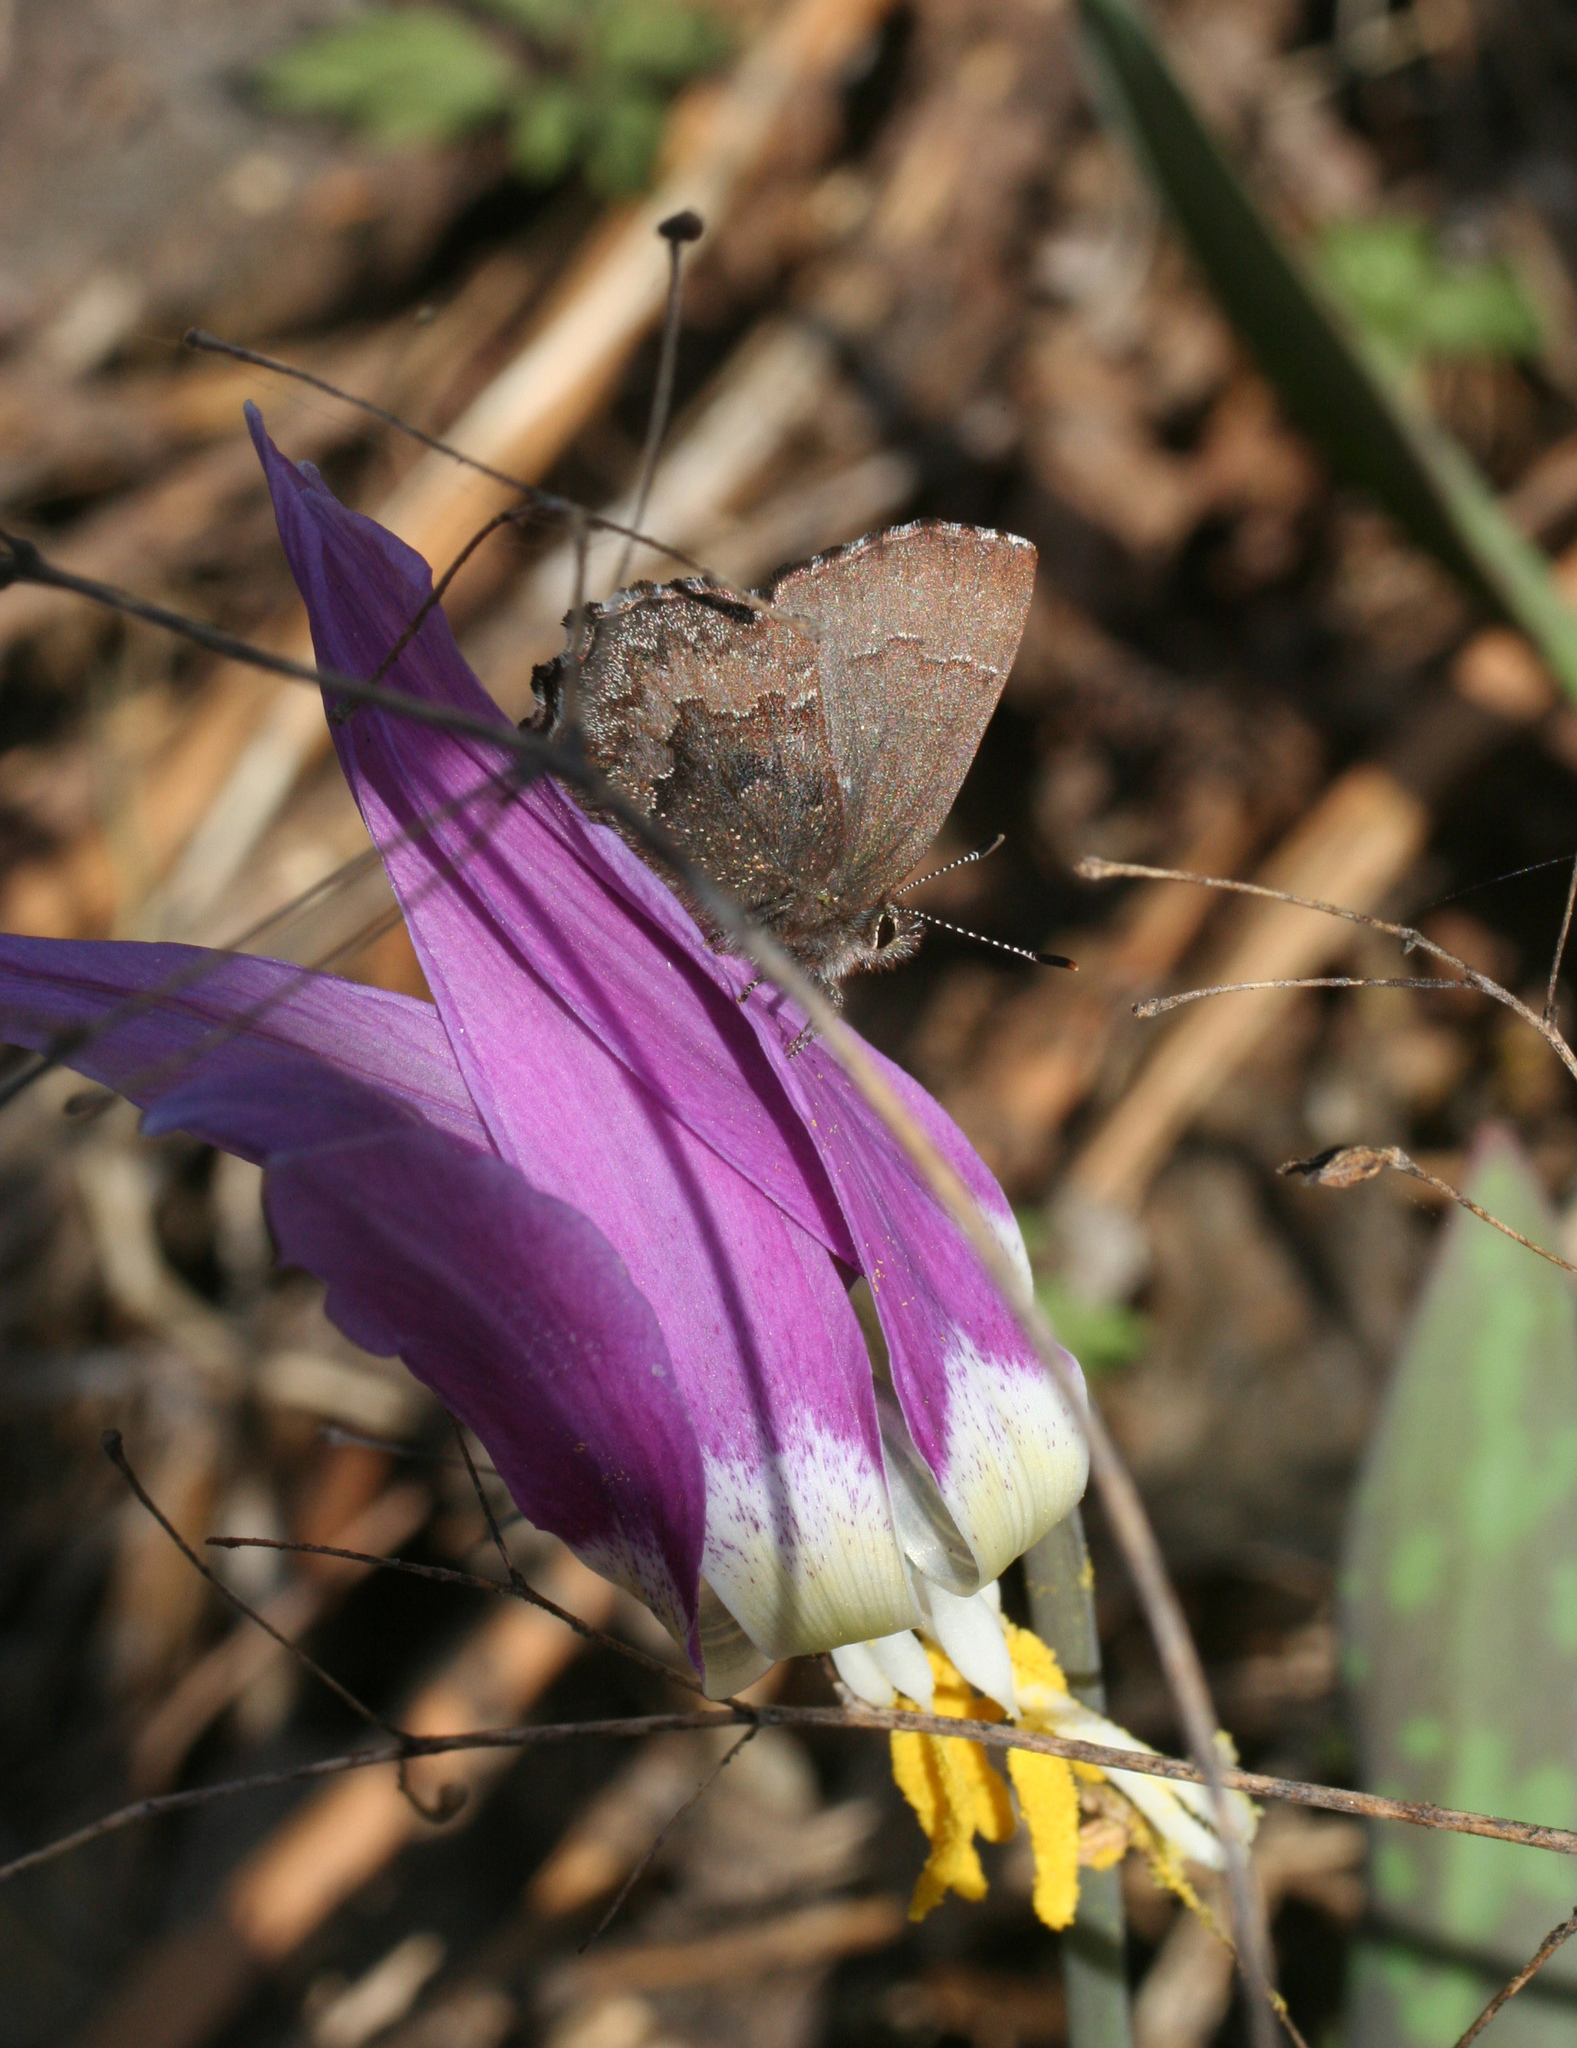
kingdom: Plantae
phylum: Tracheophyta
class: Liliopsida
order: Liliales
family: Liliaceae
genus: Erythronium
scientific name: Erythronium sibiricum
